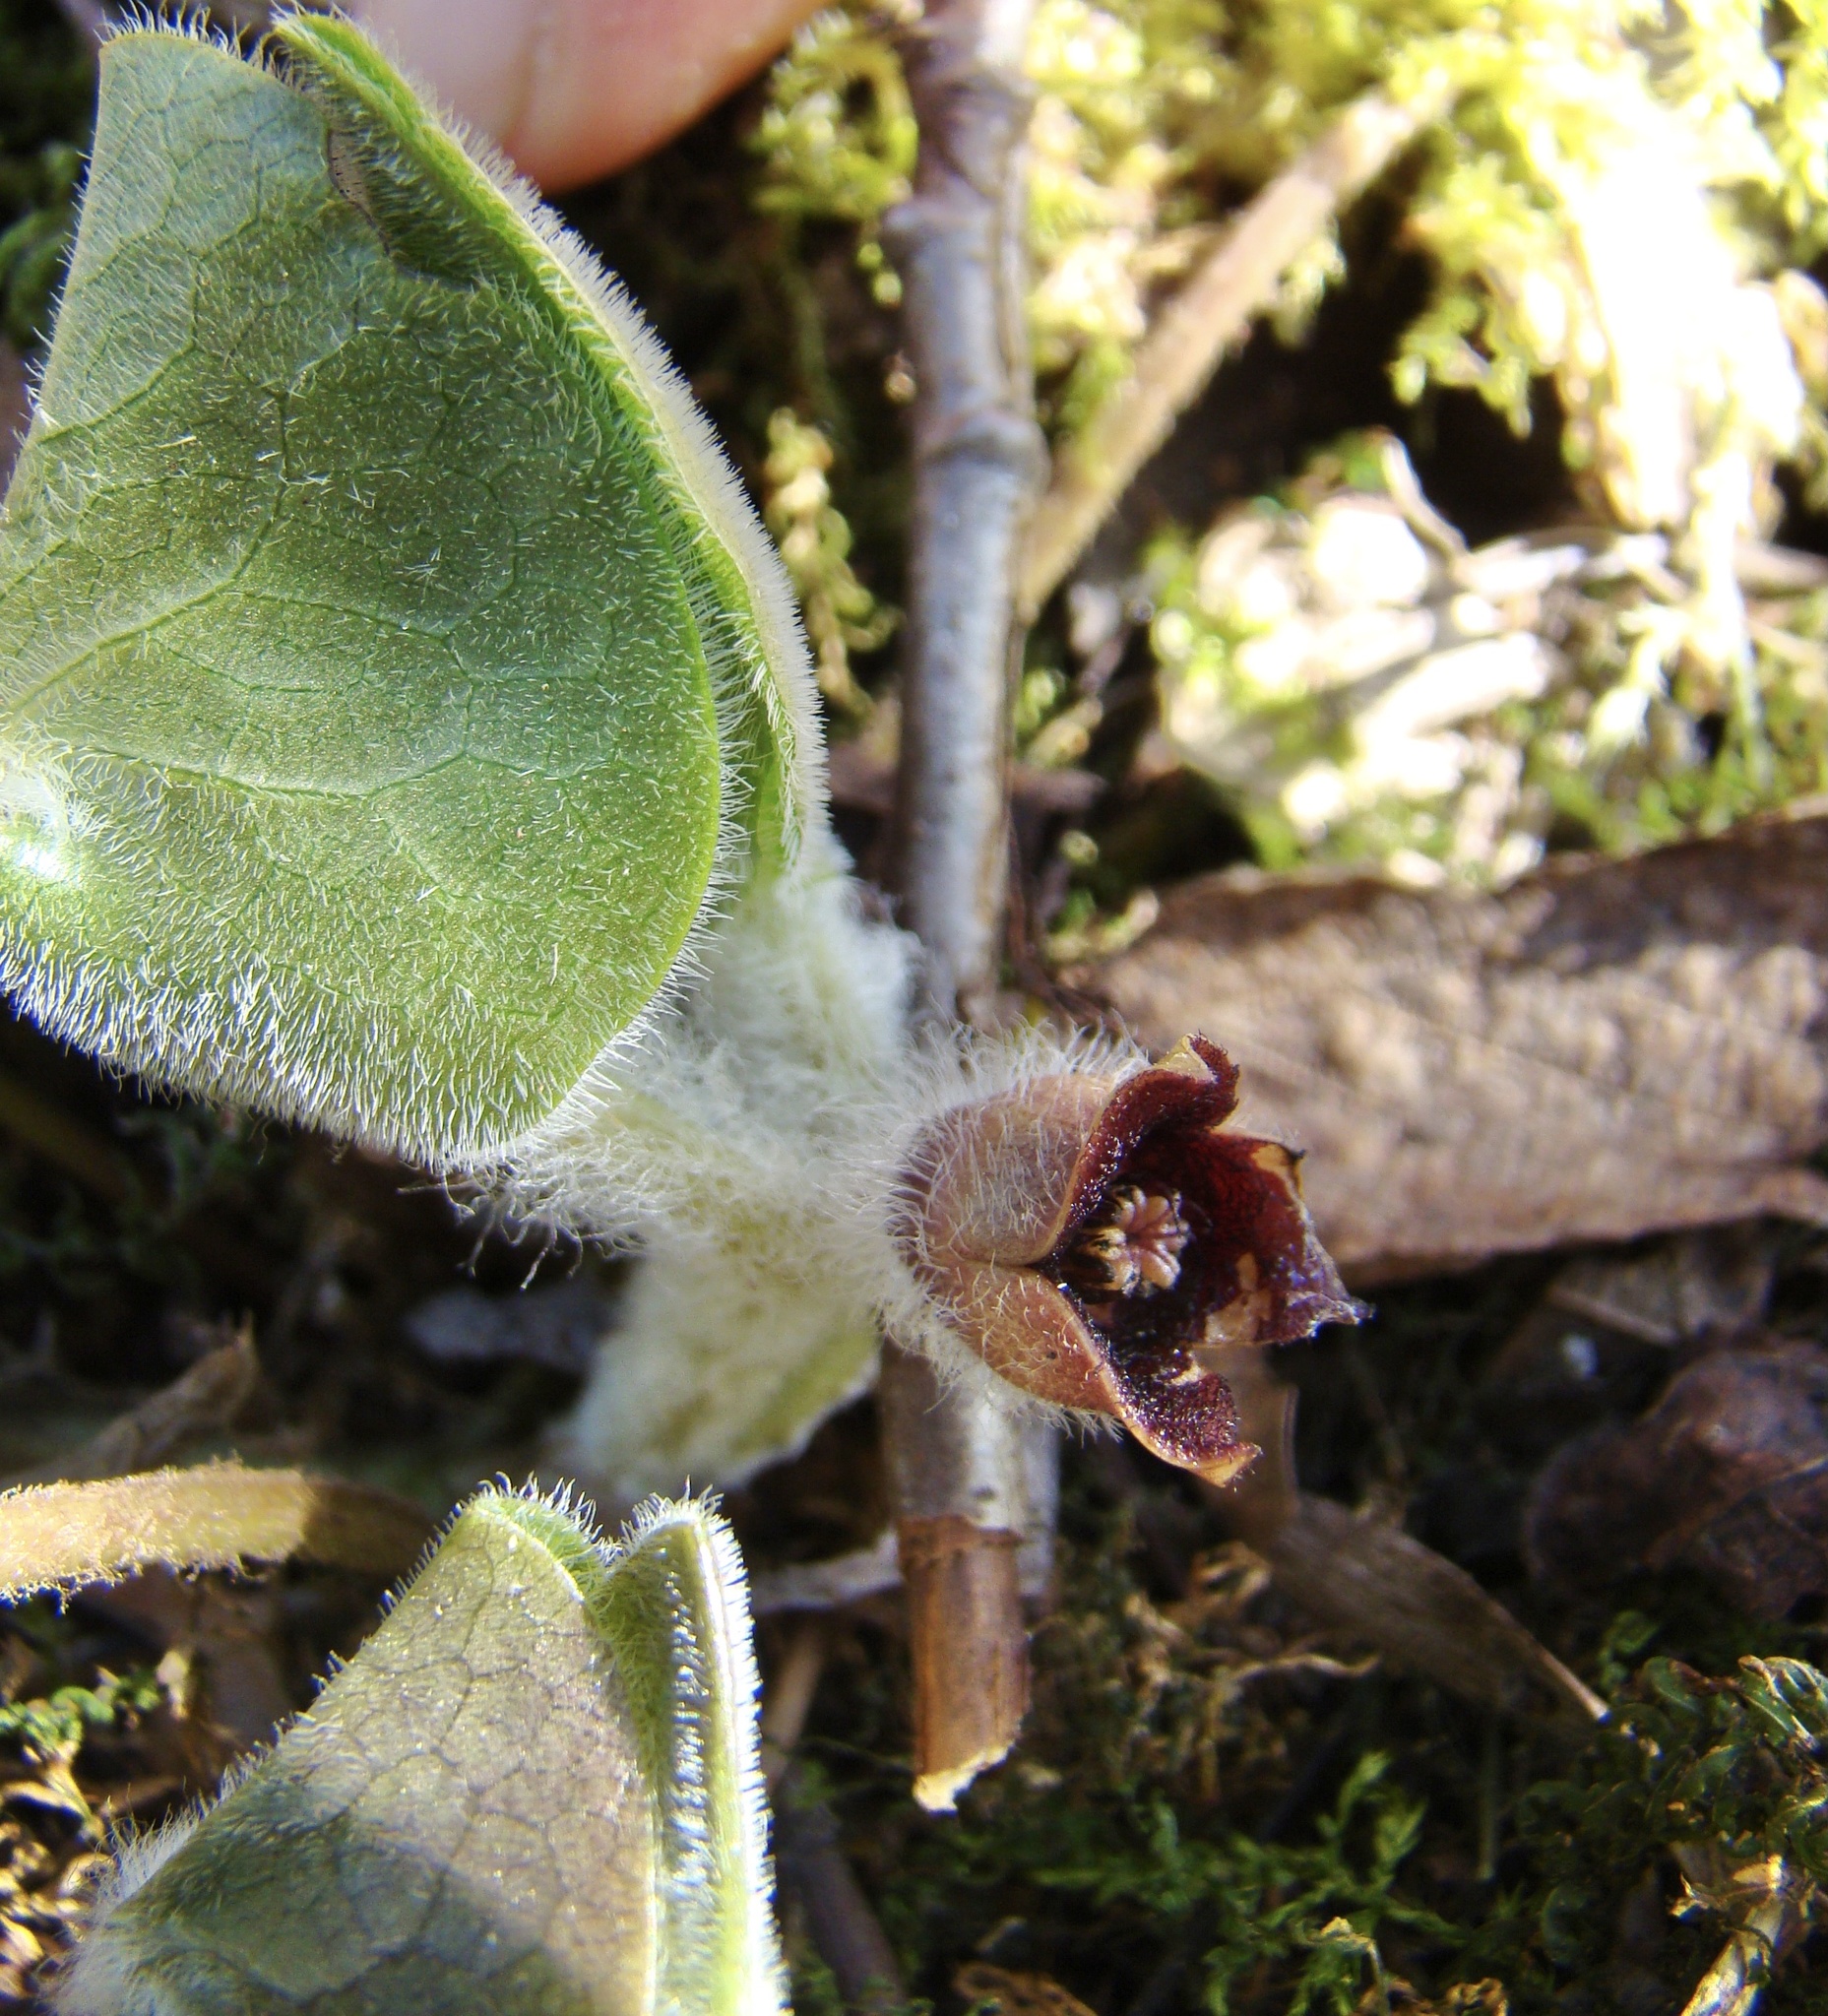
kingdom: Plantae
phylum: Tracheophyta
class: Magnoliopsida
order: Piperales
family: Aristolochiaceae
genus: Asarum
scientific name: Asarum europaeum
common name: Asarabacca
